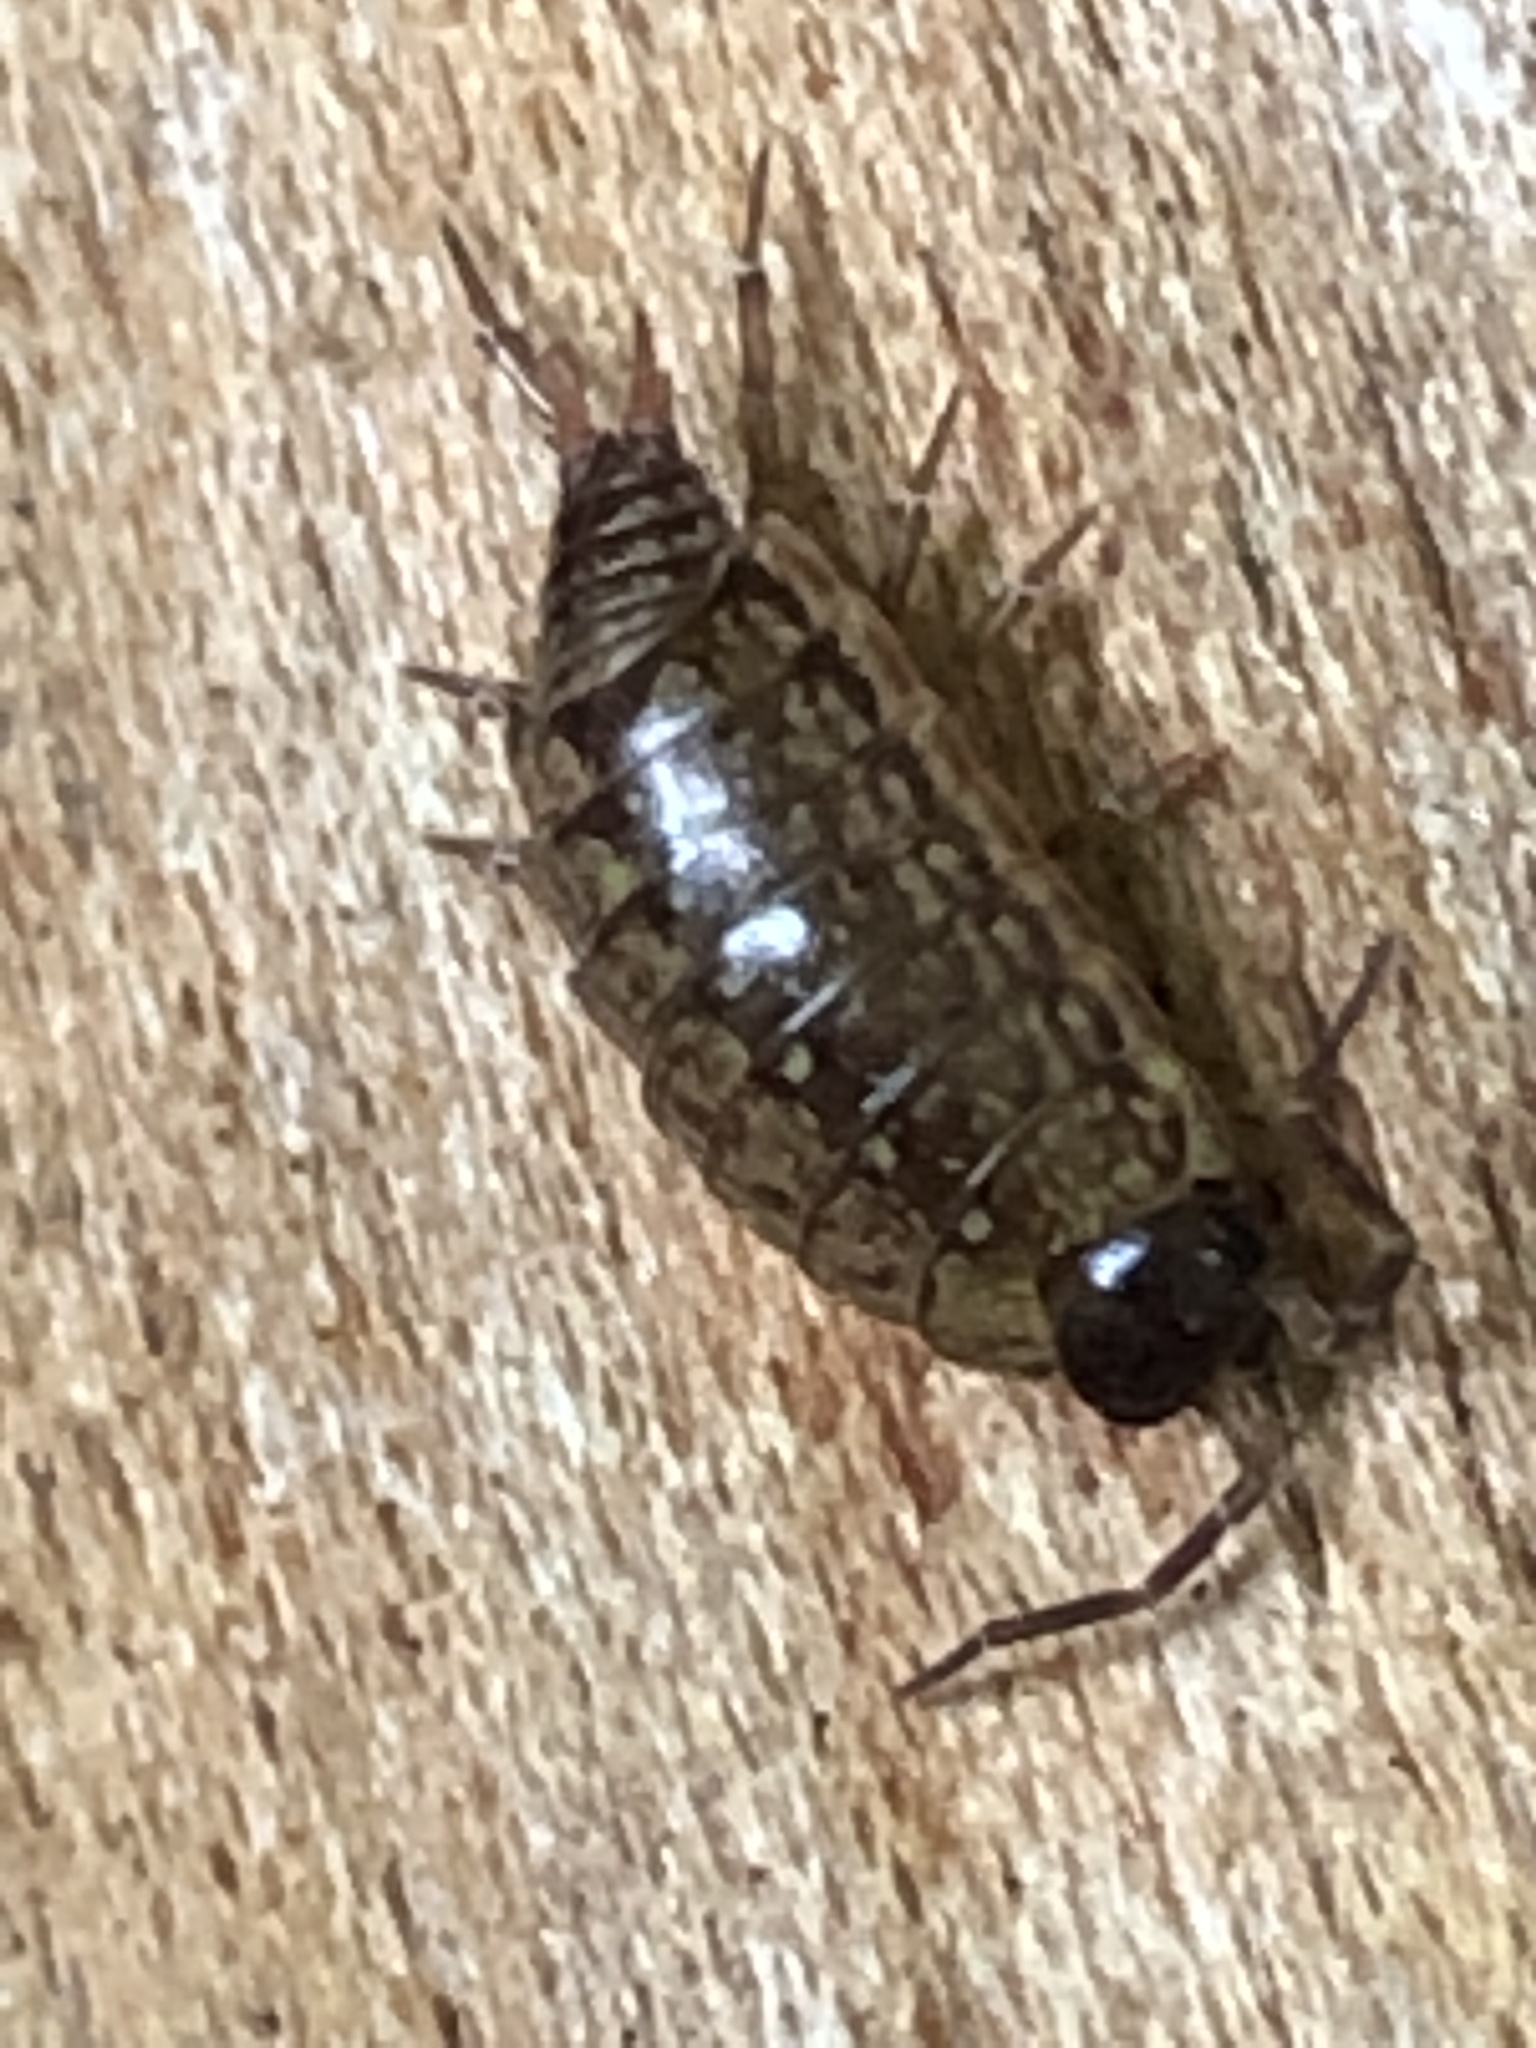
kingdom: Animalia
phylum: Arthropoda
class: Malacostraca
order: Isopoda
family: Philosciidae
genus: Philoscia
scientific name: Philoscia muscorum
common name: Common striped woodlouse
